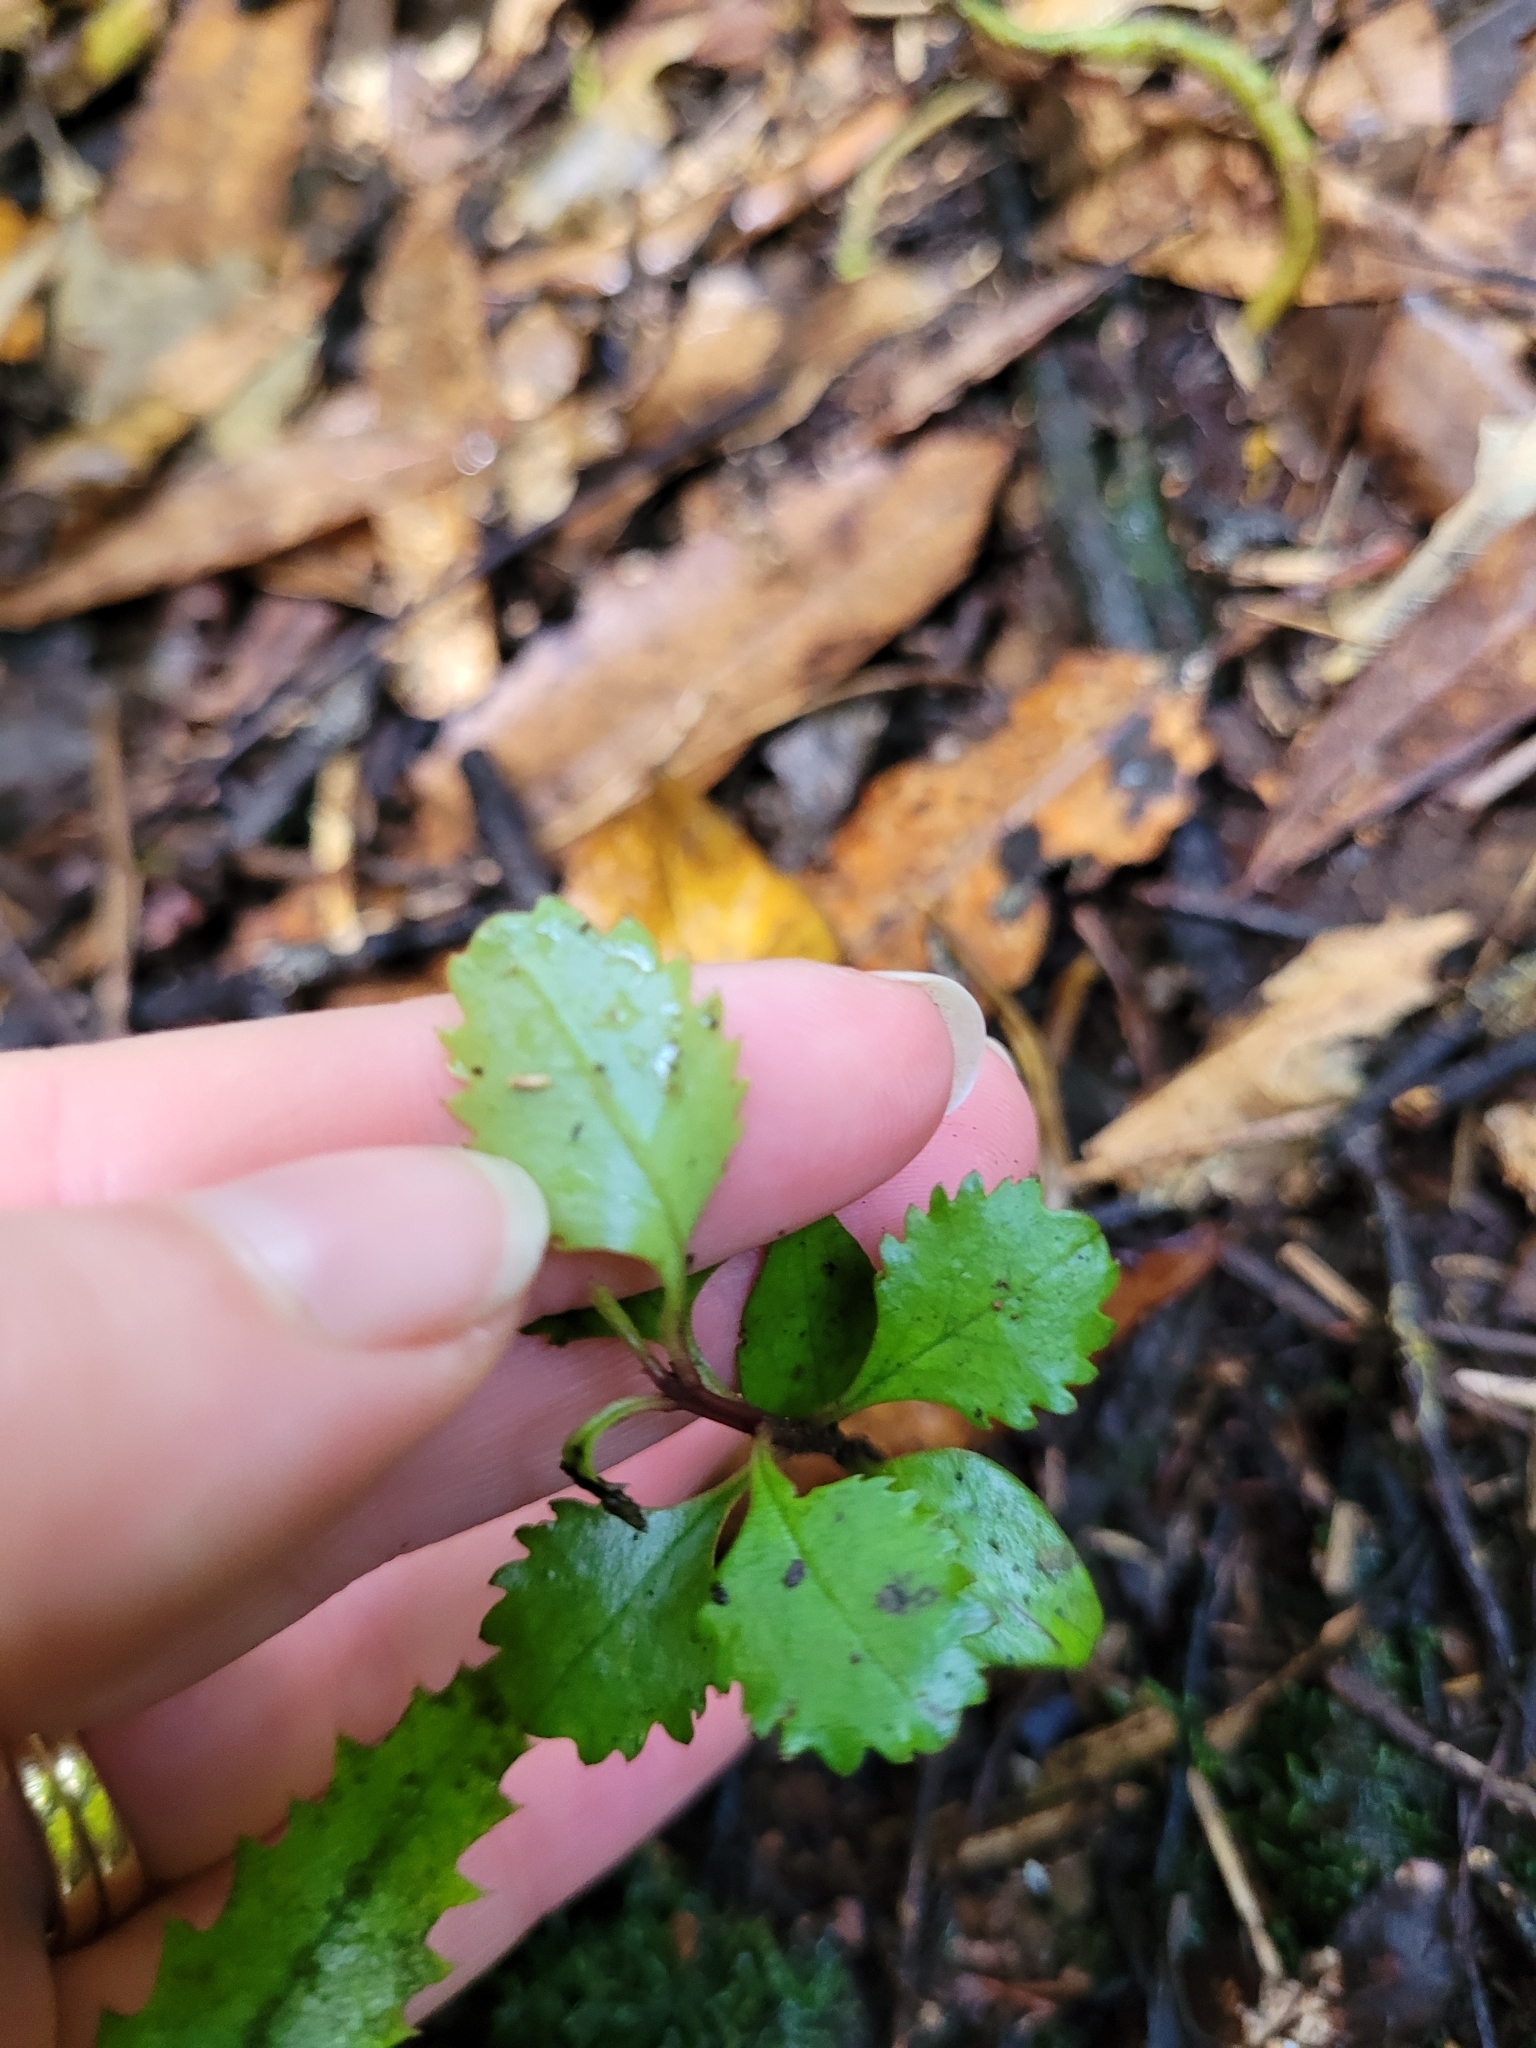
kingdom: Plantae
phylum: Tracheophyta
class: Magnoliopsida
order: Laurales
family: Atherospermataceae
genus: Laurelia
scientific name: Laurelia novae-zelandiae
